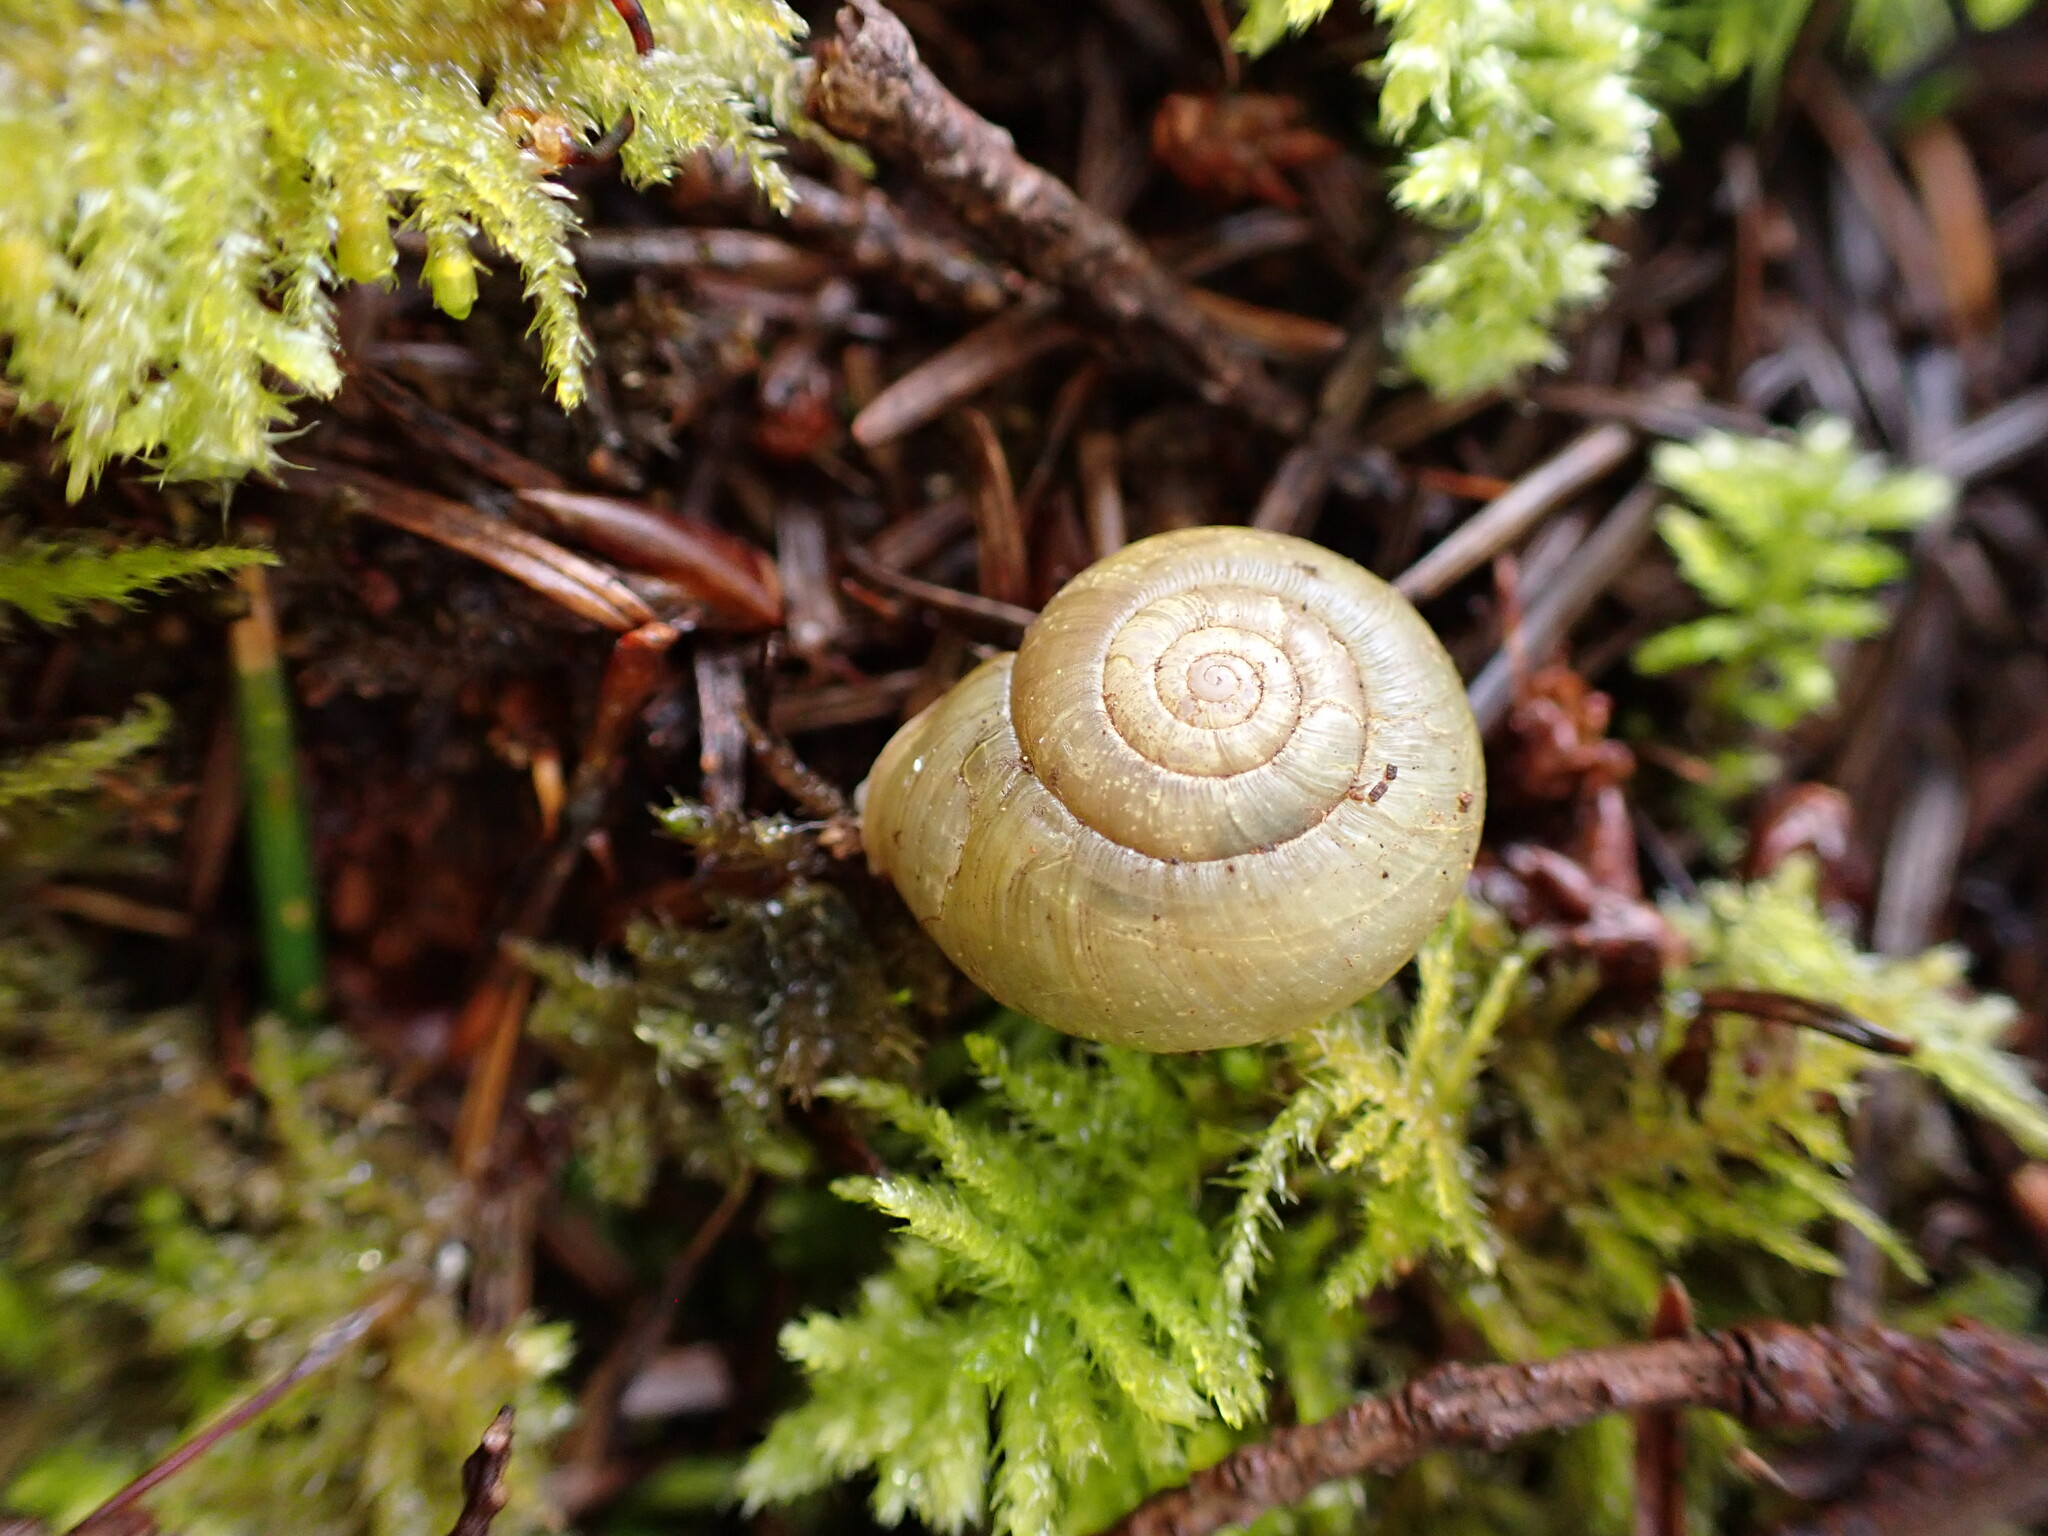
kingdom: Animalia
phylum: Mollusca
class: Gastropoda
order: Stylommatophora
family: Haplotrematidae
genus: Haplotrema
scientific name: Haplotrema vancouverense
